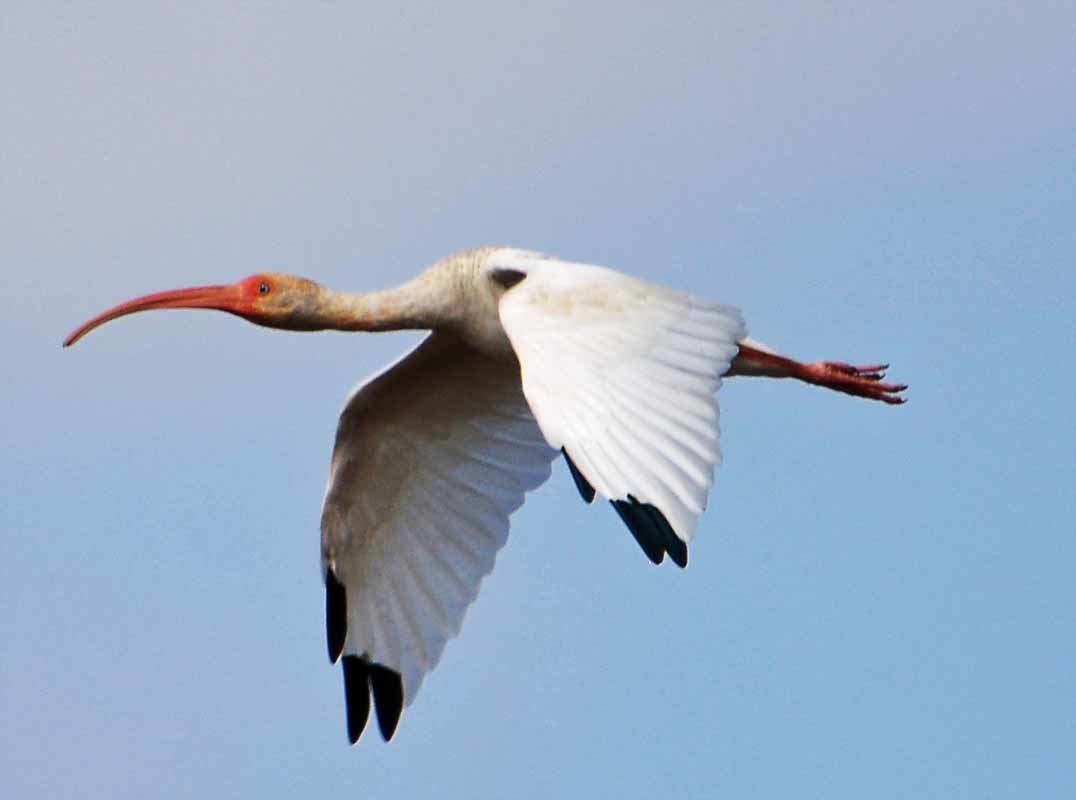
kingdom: Animalia
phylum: Chordata
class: Aves
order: Pelecaniformes
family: Threskiornithidae
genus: Eudocimus
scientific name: Eudocimus albus
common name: White ibis
